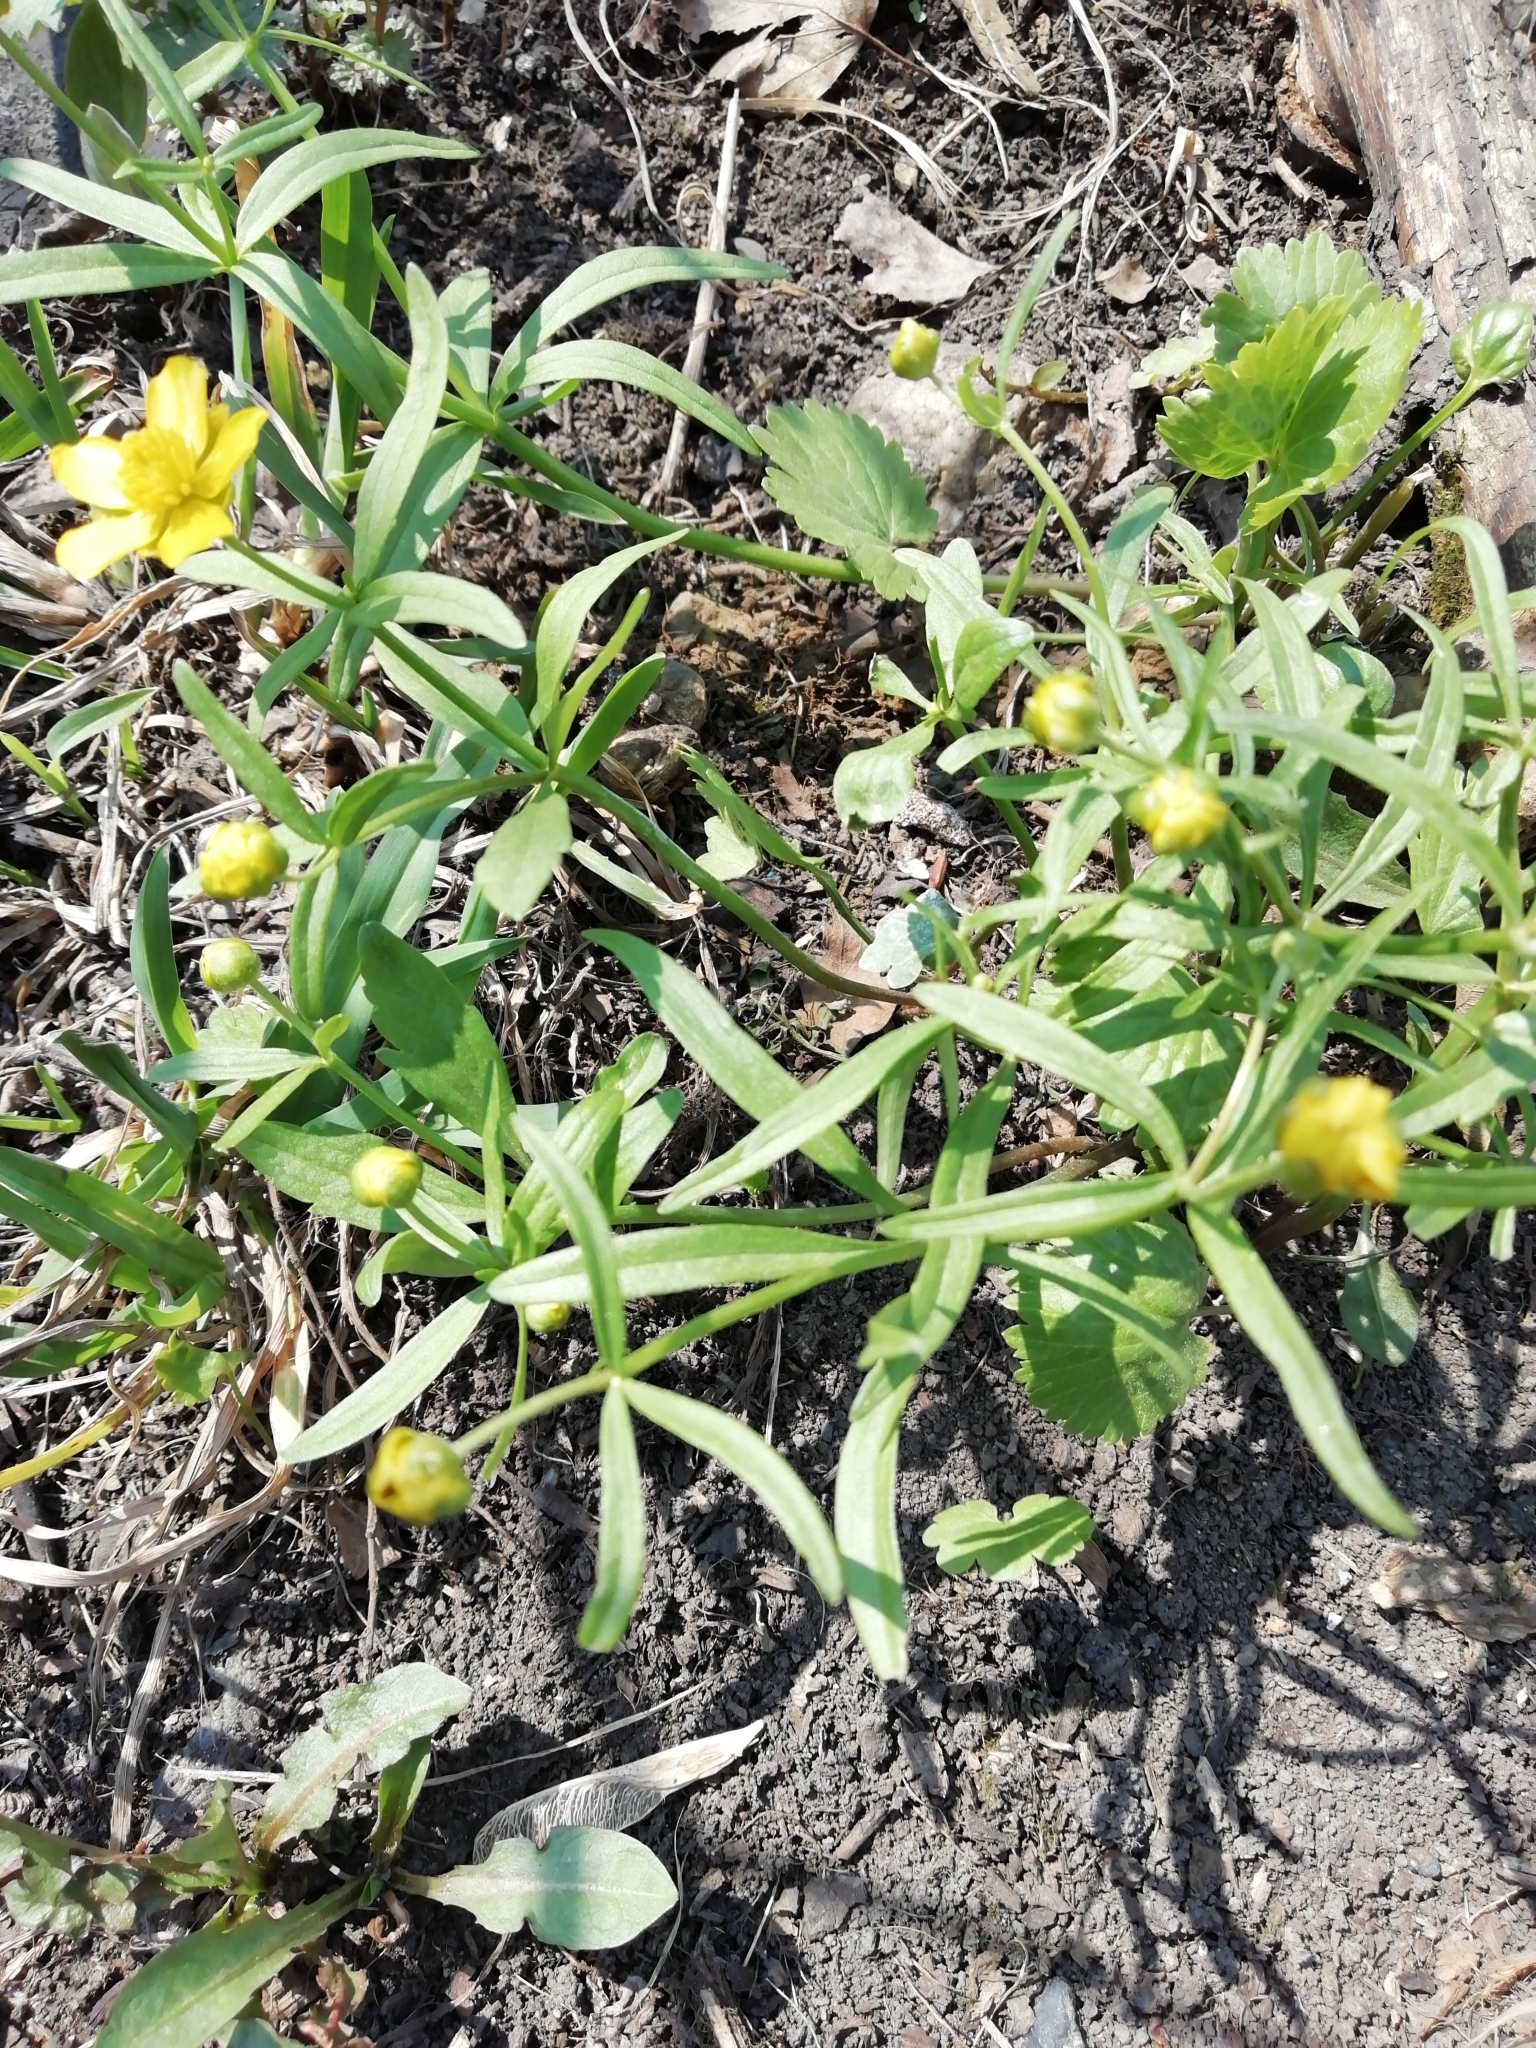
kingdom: Plantae
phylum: Tracheophyta
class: Magnoliopsida
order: Ranunculales
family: Ranunculaceae
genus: Ranunculus
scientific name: Ranunculus monophyllus
